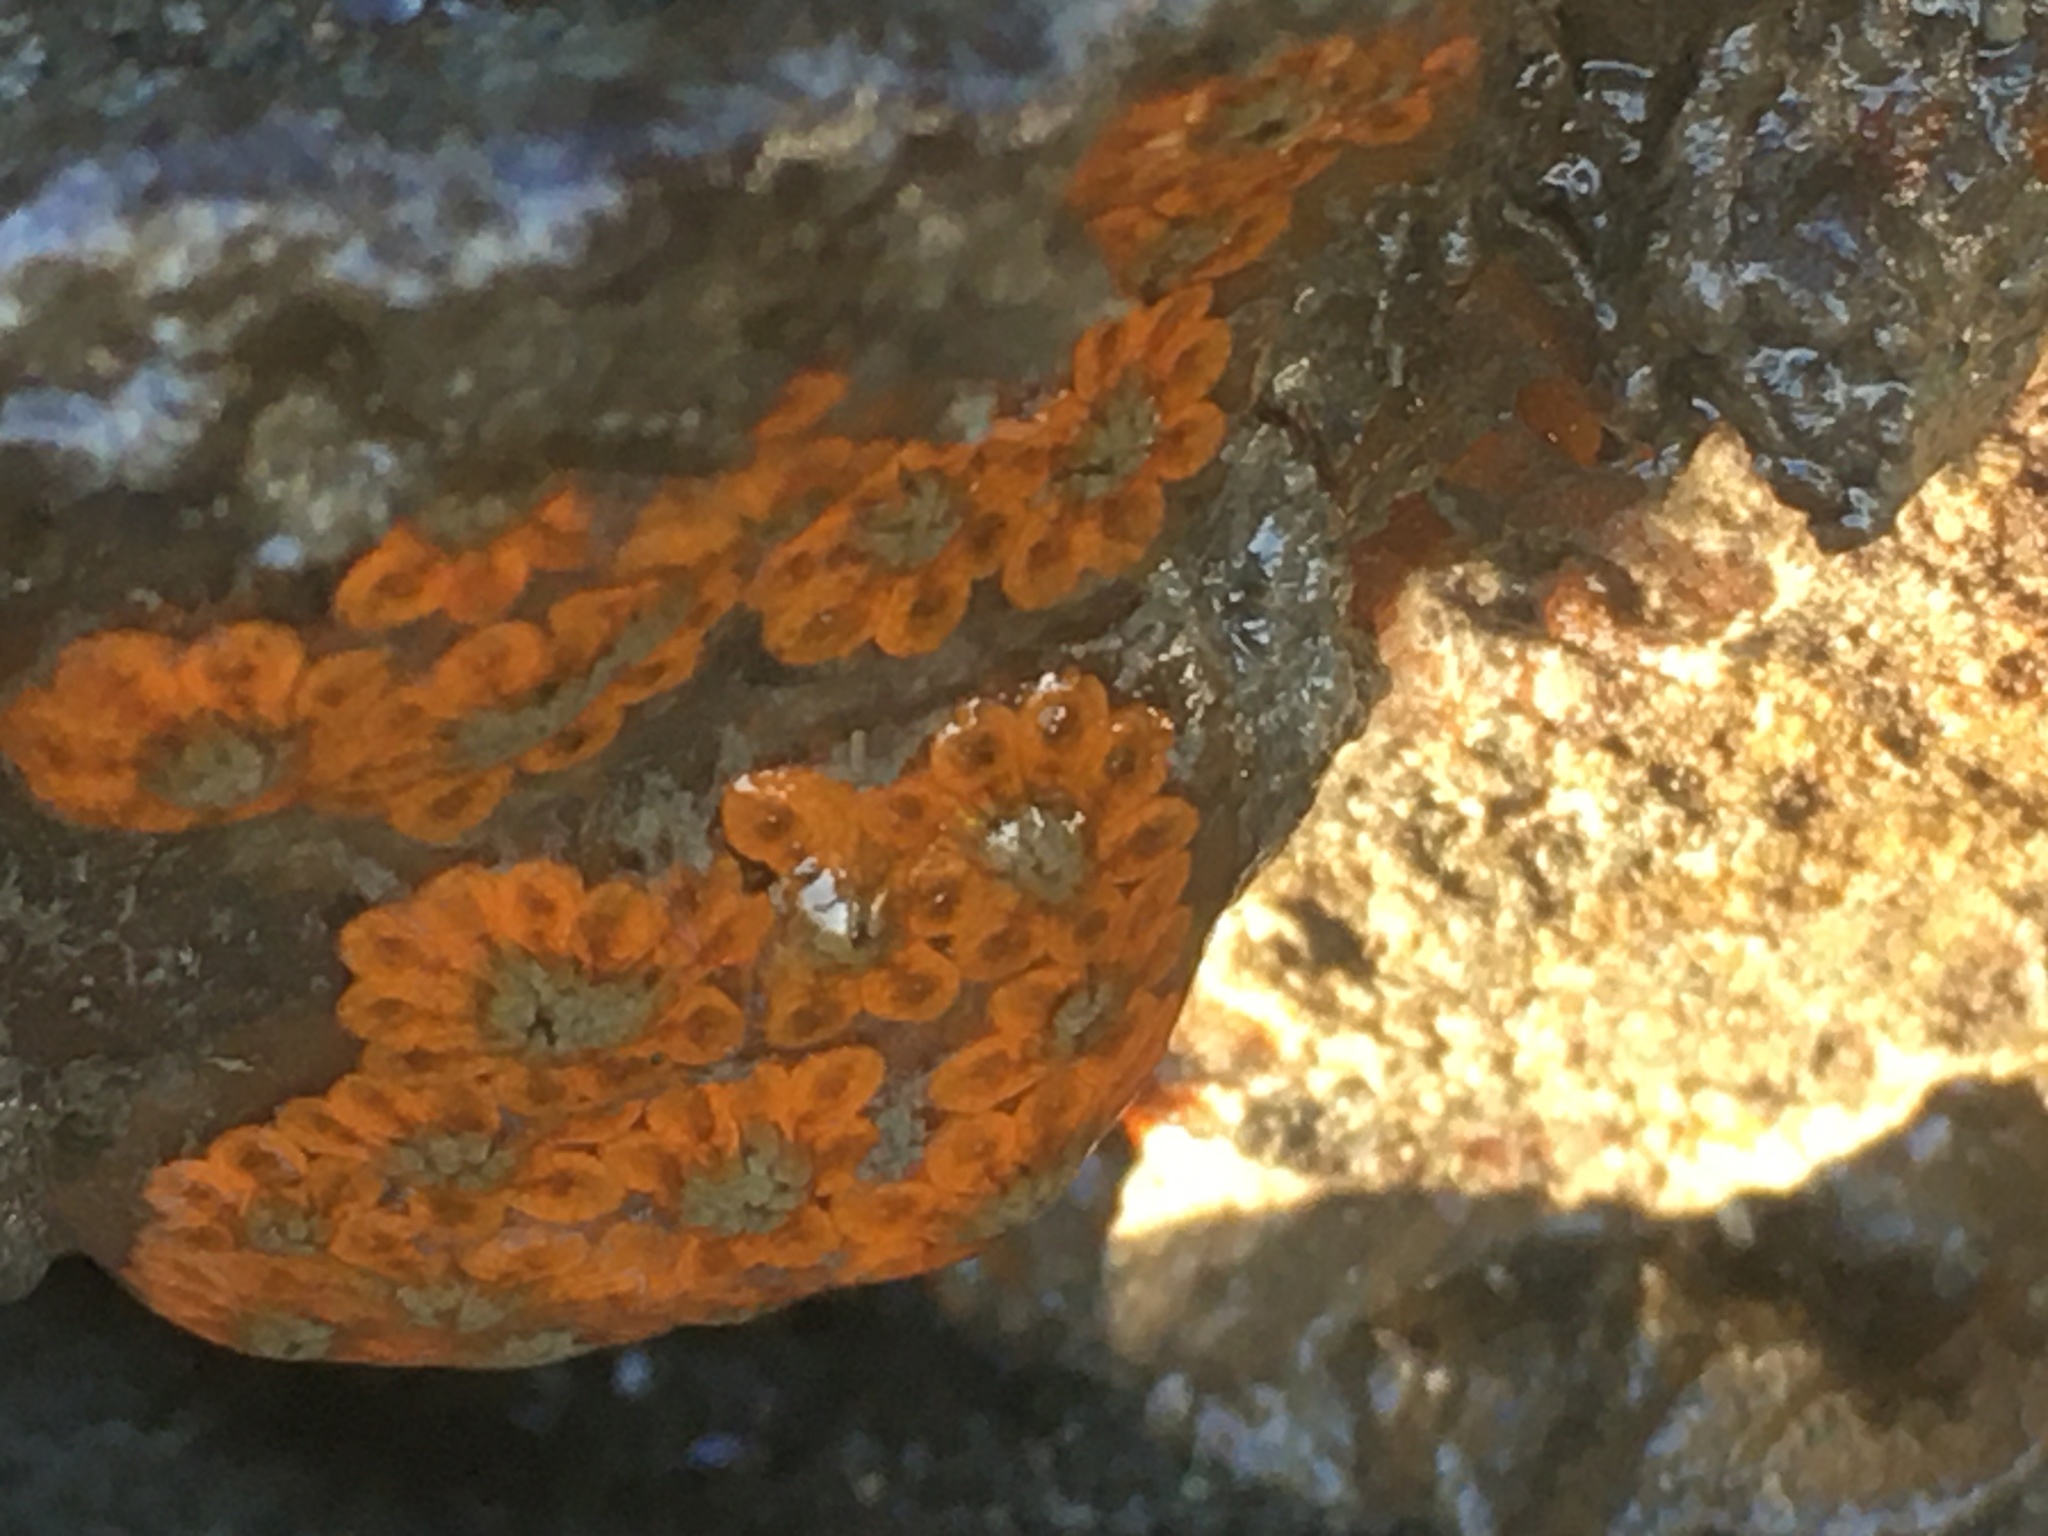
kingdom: Animalia
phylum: Chordata
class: Ascidiacea
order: Stolidobranchia
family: Styelidae
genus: Botryllus
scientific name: Botryllus schlosseri
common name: Golden star tunicate
